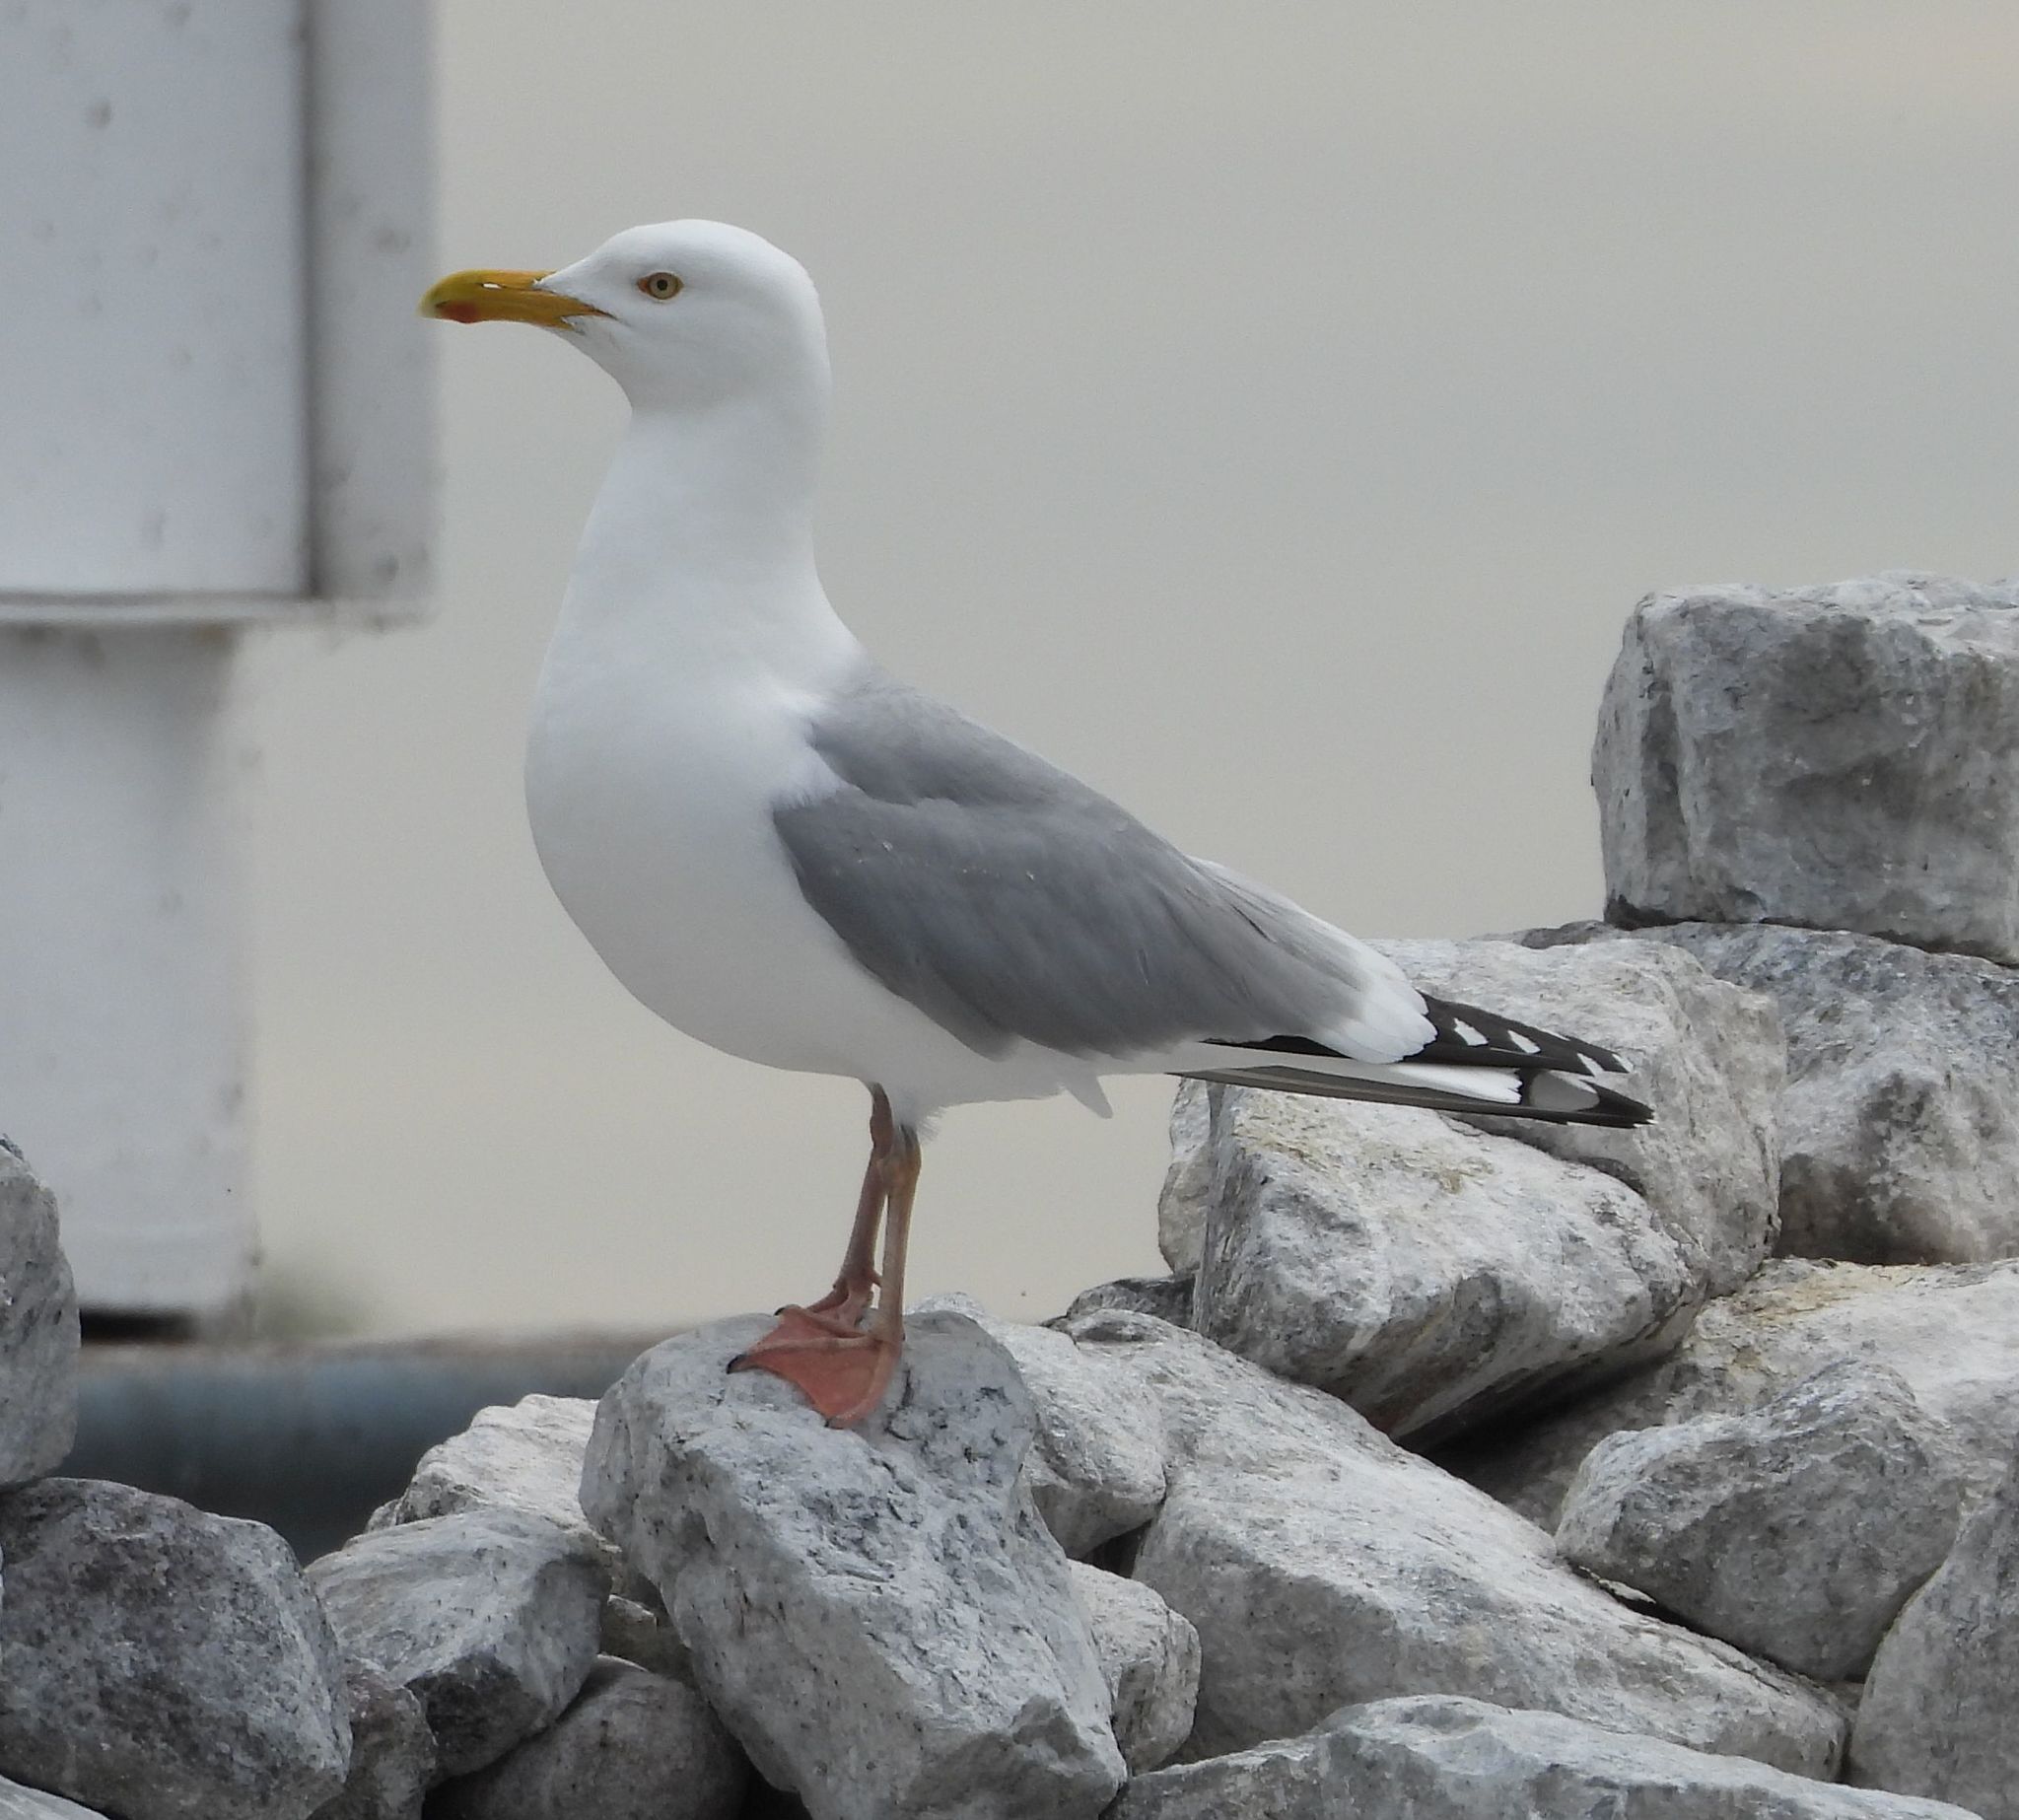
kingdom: Animalia
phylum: Chordata
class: Aves
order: Charadriiformes
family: Laridae
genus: Larus
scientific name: Larus argentatus
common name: Herring gull
